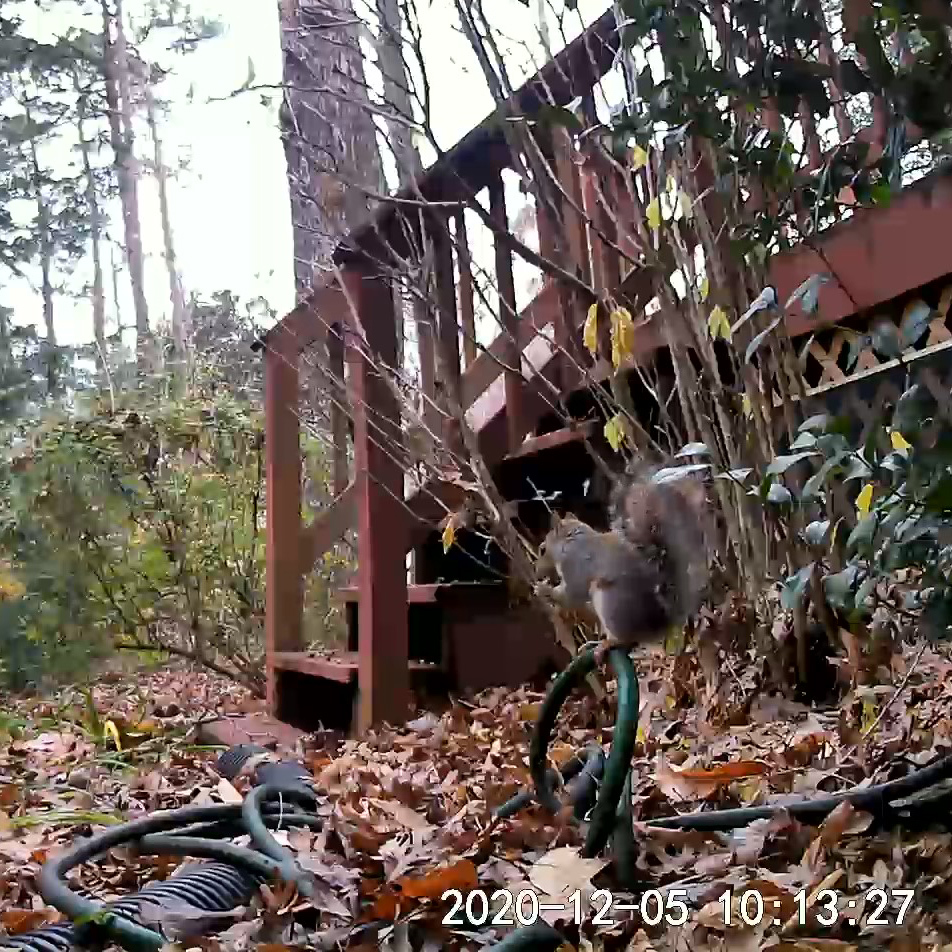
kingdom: Animalia
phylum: Chordata
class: Mammalia
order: Rodentia
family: Sciuridae
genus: Sciurus
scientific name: Sciurus carolinensis
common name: Eastern gray squirrel
